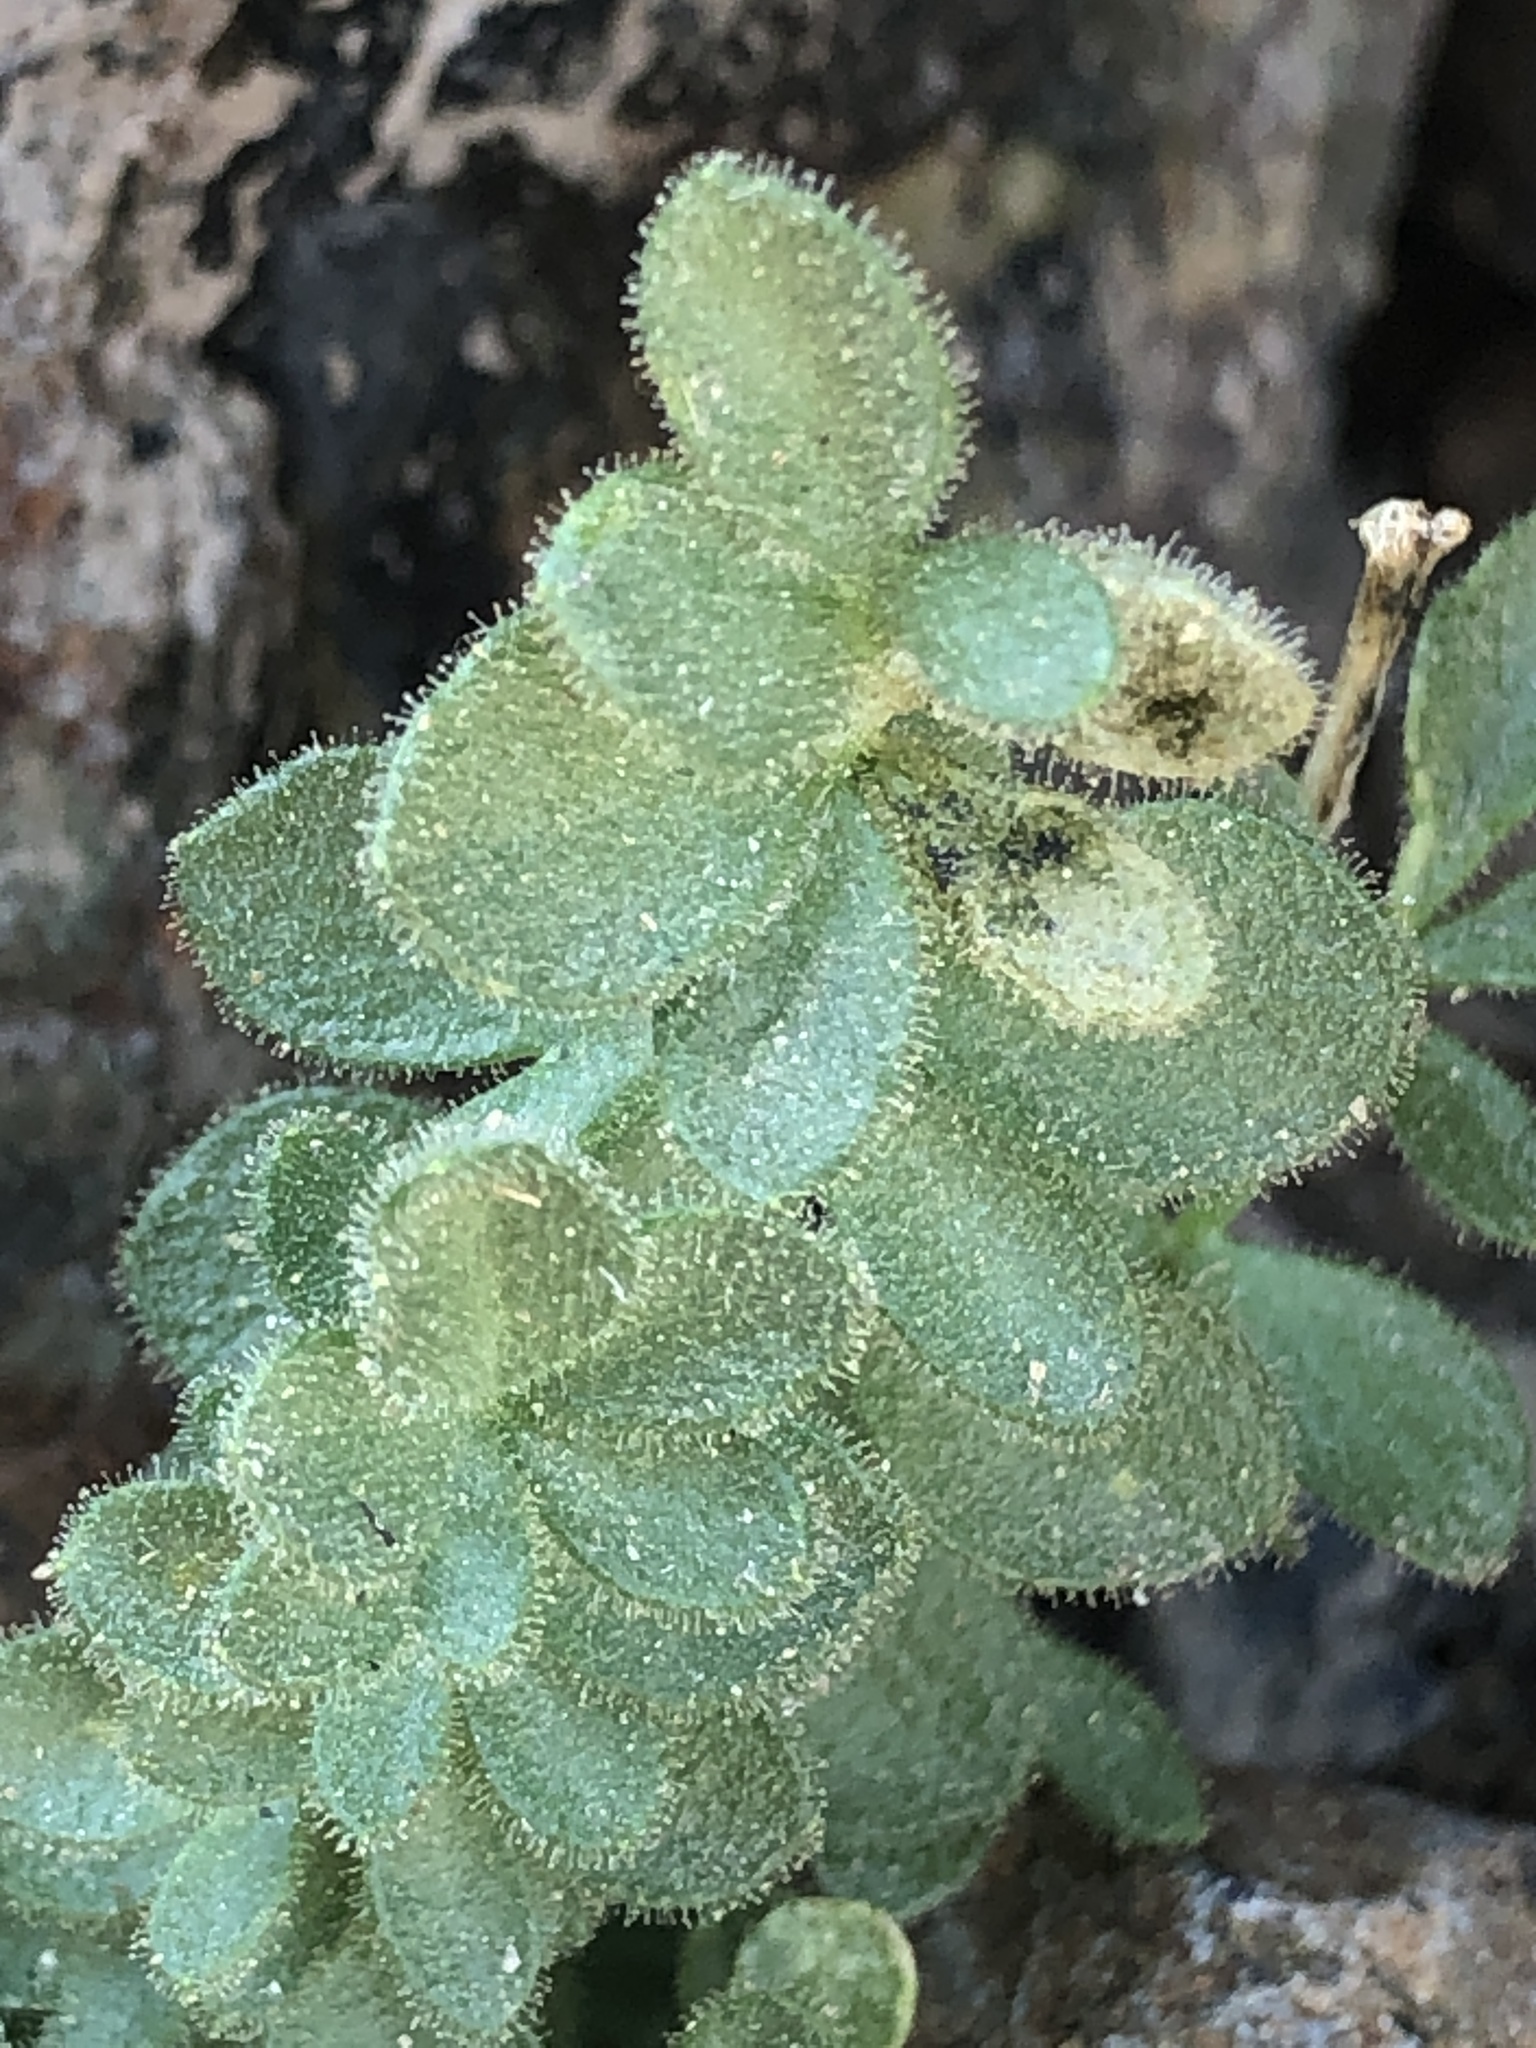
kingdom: Plantae
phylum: Tracheophyta
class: Magnoliopsida
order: Ericales
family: Polemoniaceae
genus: Polemonium
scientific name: Polemonium eximium
